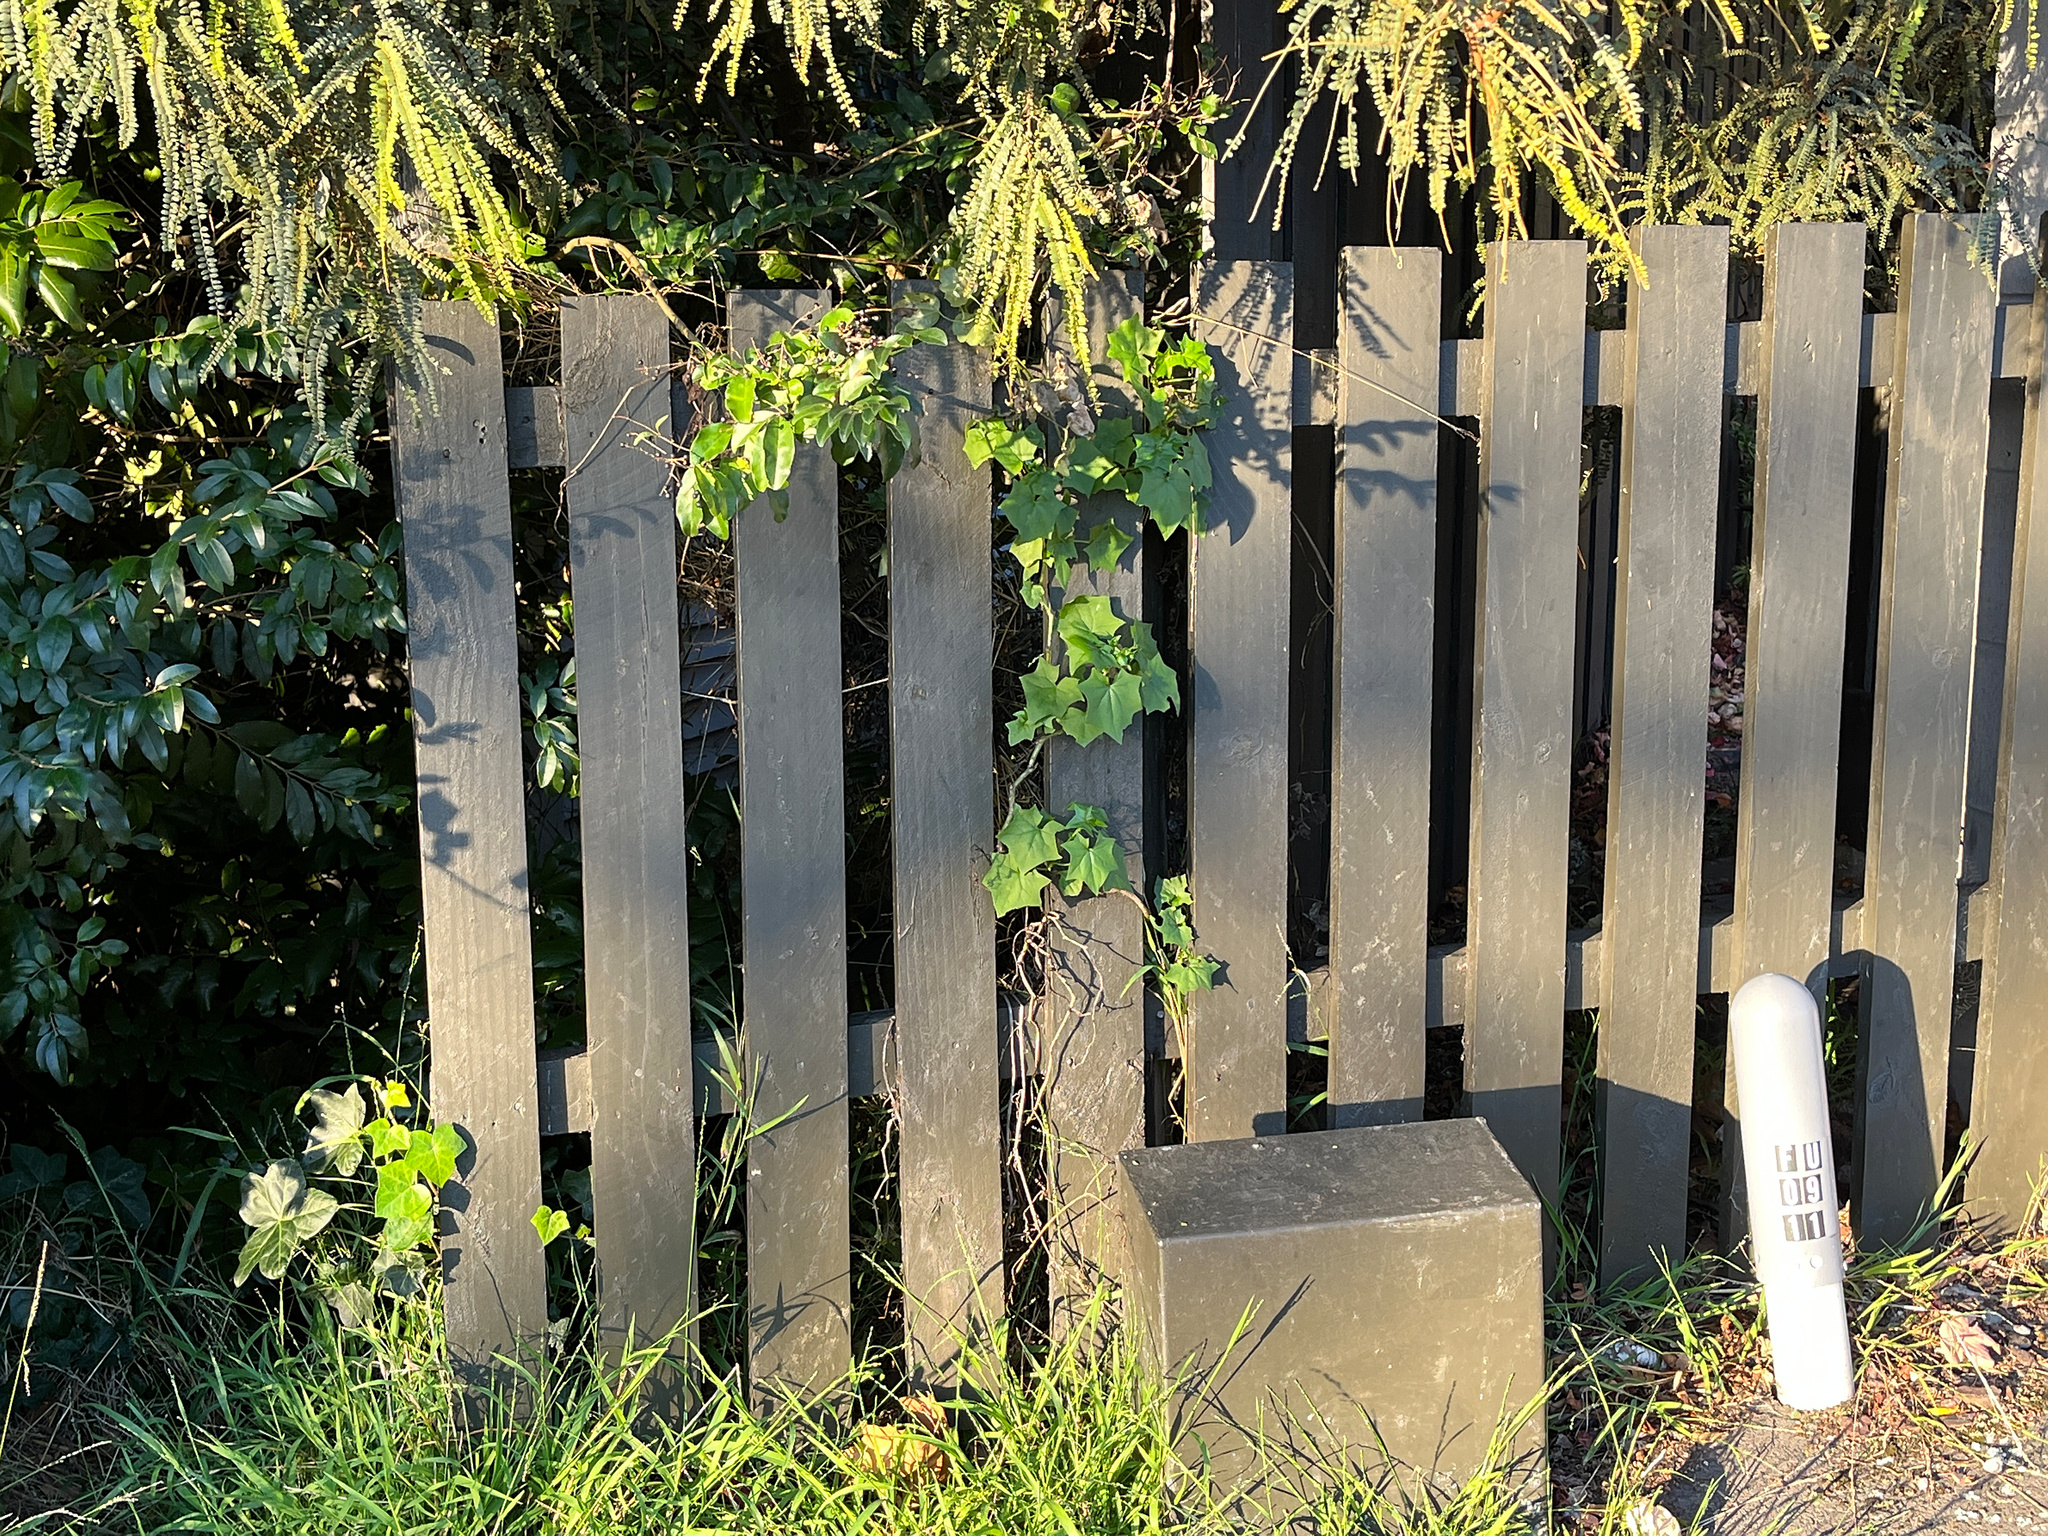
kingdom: Plantae
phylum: Tracheophyta
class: Magnoliopsida
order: Asterales
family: Asteraceae
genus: Delairea
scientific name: Delairea odorata
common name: Cape-ivy
